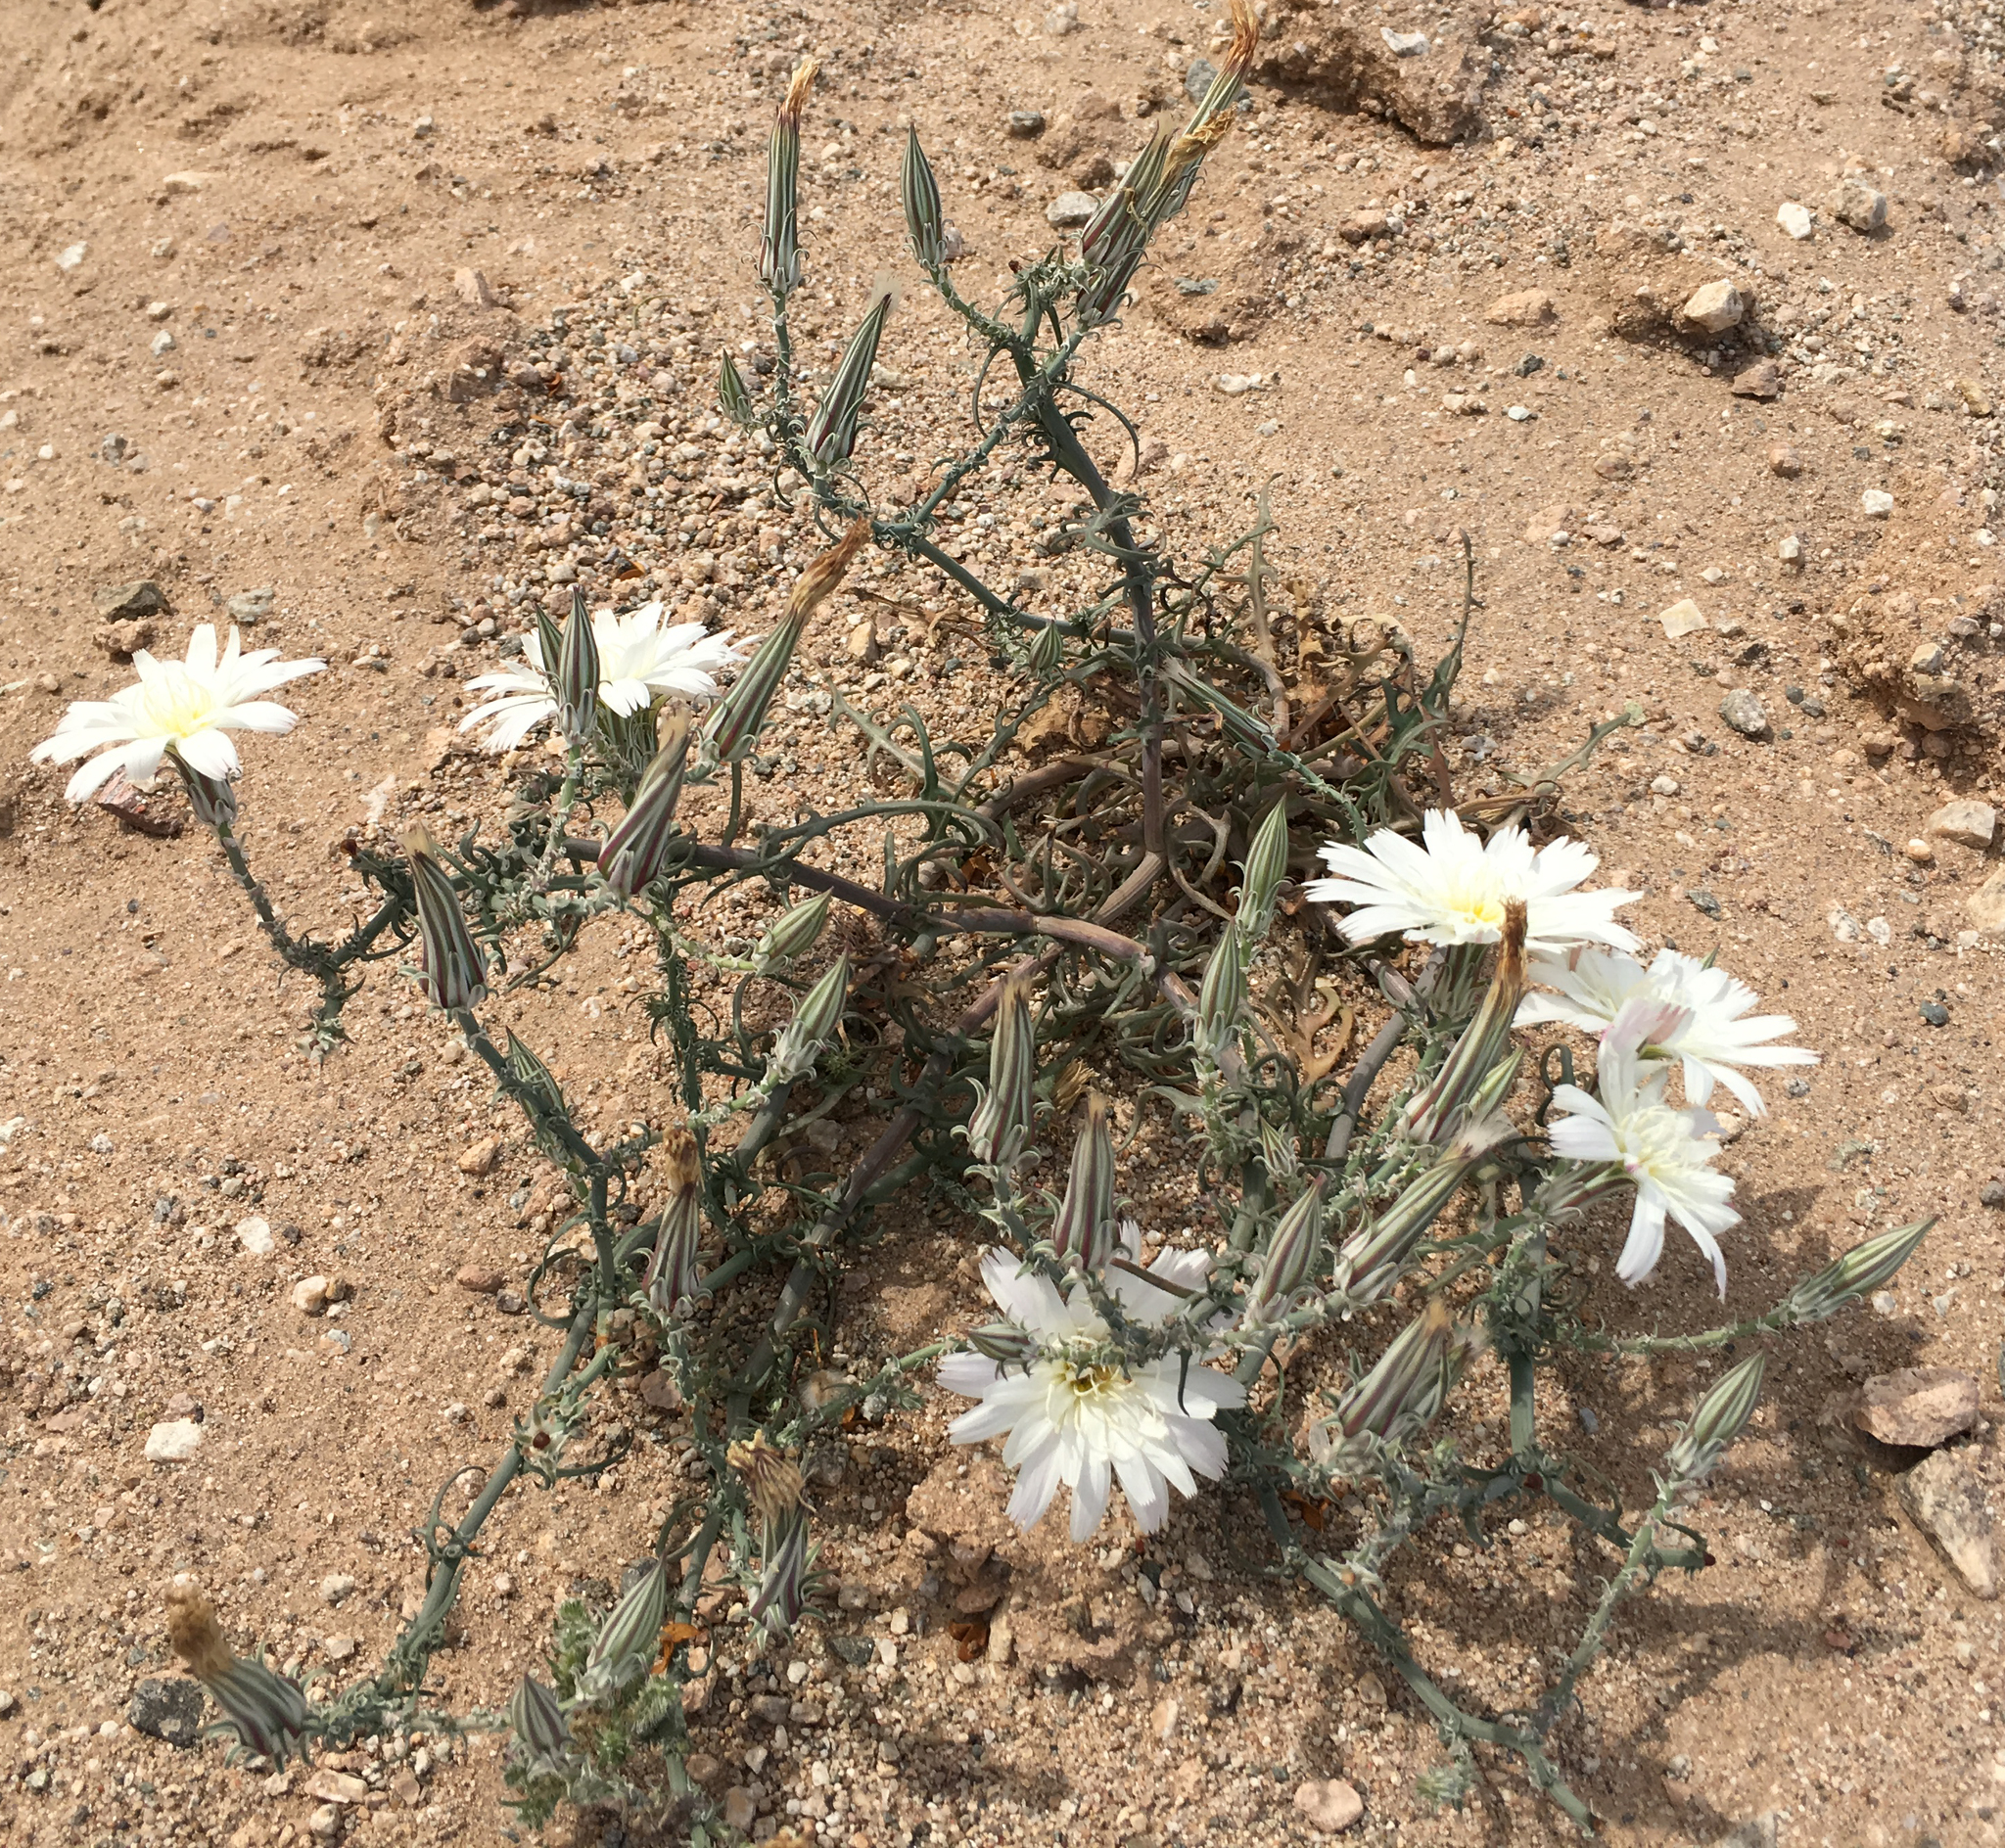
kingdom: Plantae
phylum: Tracheophyta
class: Magnoliopsida
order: Asterales
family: Asteraceae
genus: Rafinesquia
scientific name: Rafinesquia neomexicana
